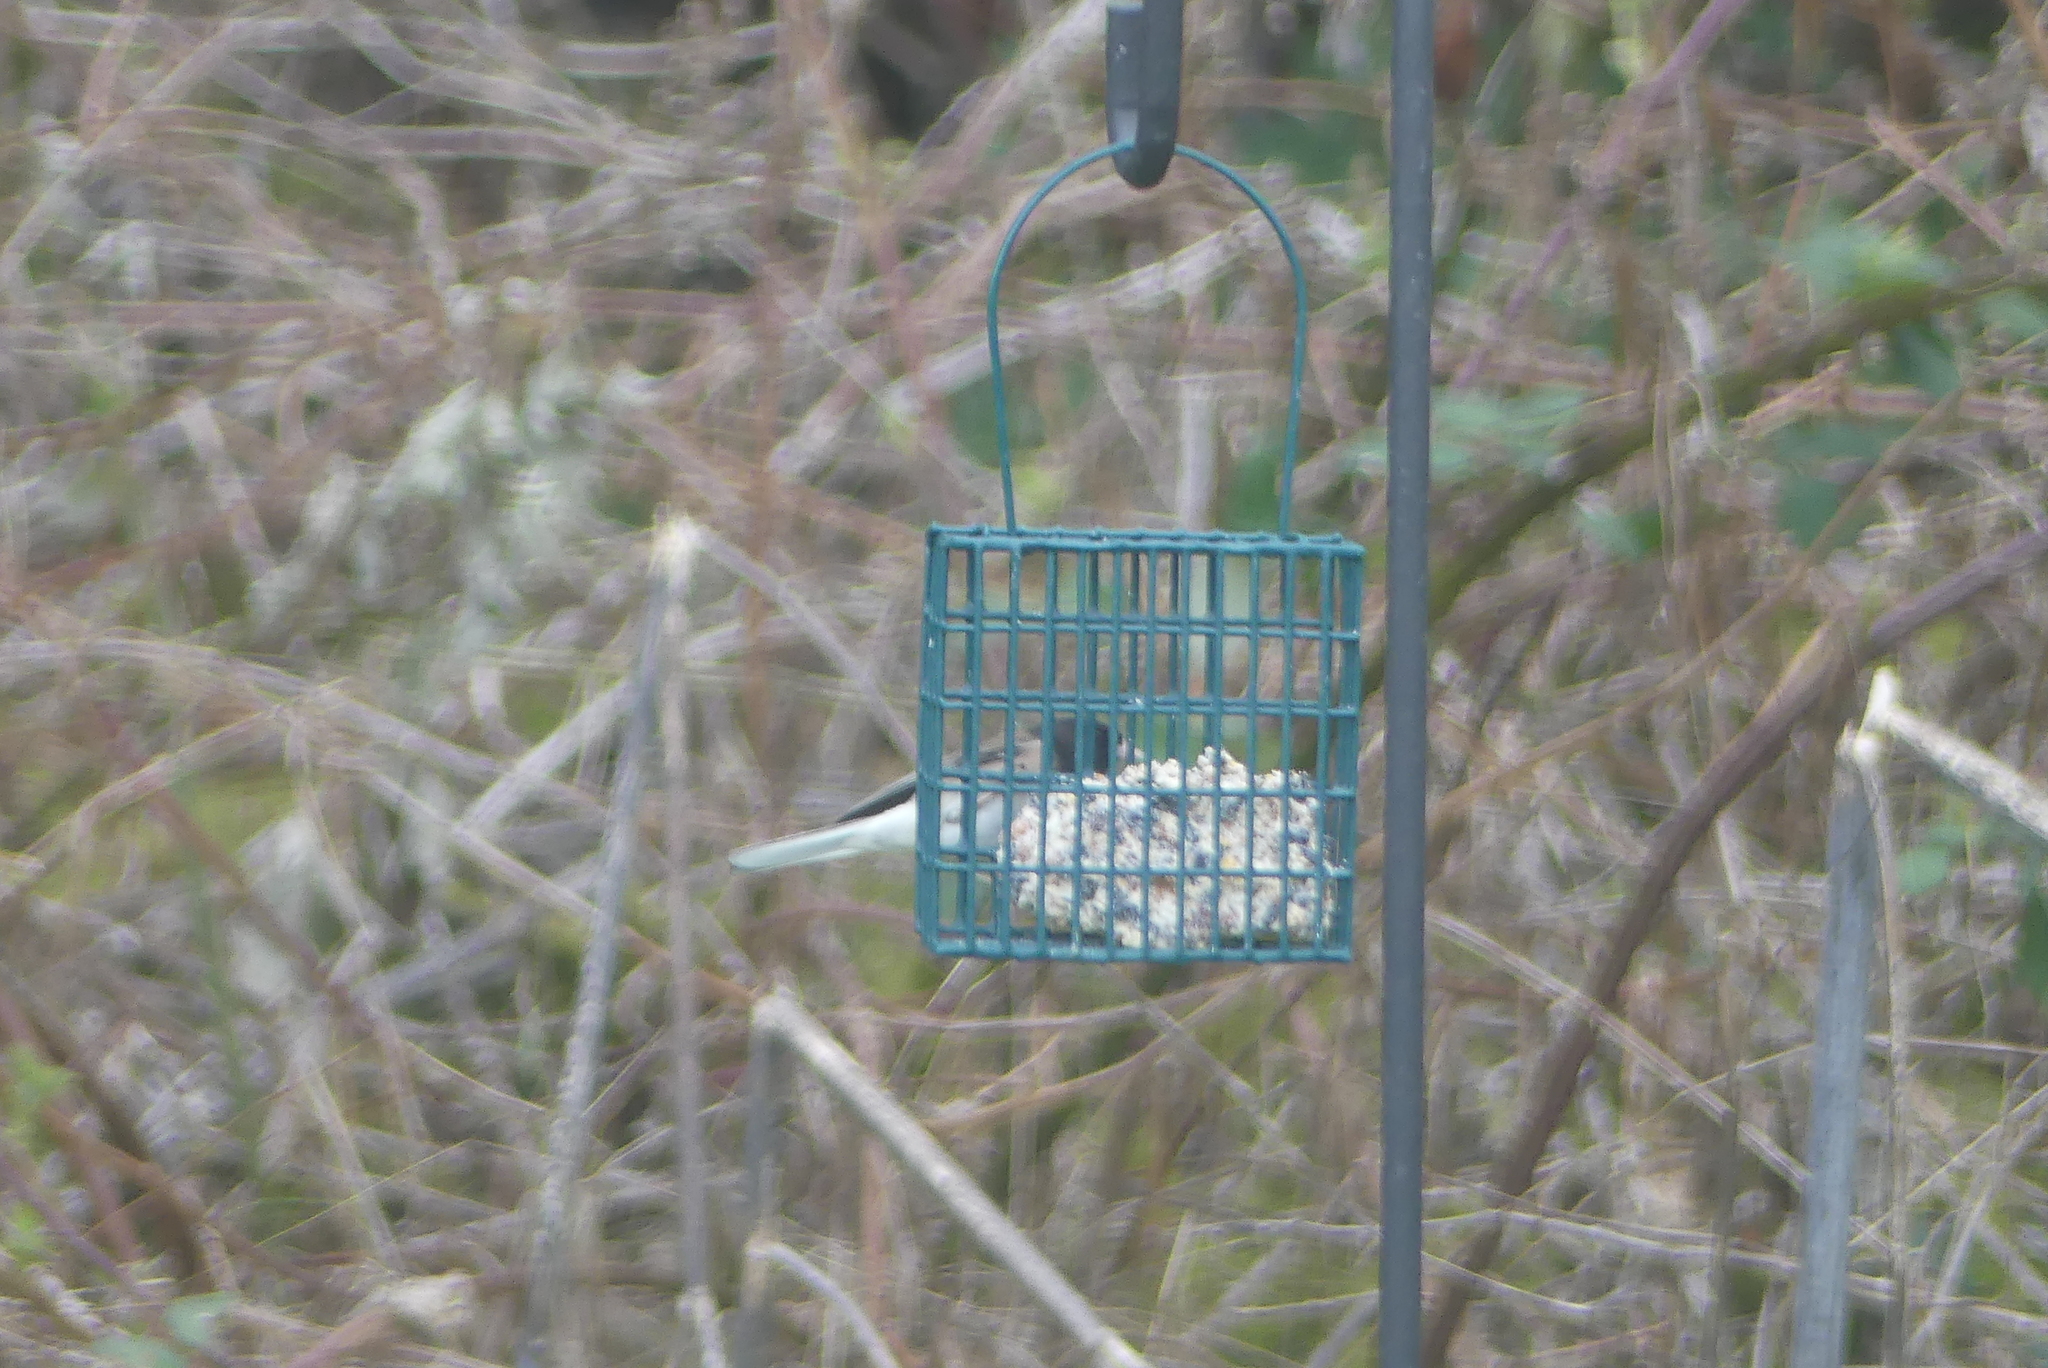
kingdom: Animalia
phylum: Chordata
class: Aves
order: Passeriformes
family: Passerellidae
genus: Junco
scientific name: Junco hyemalis
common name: Dark-eyed junco
